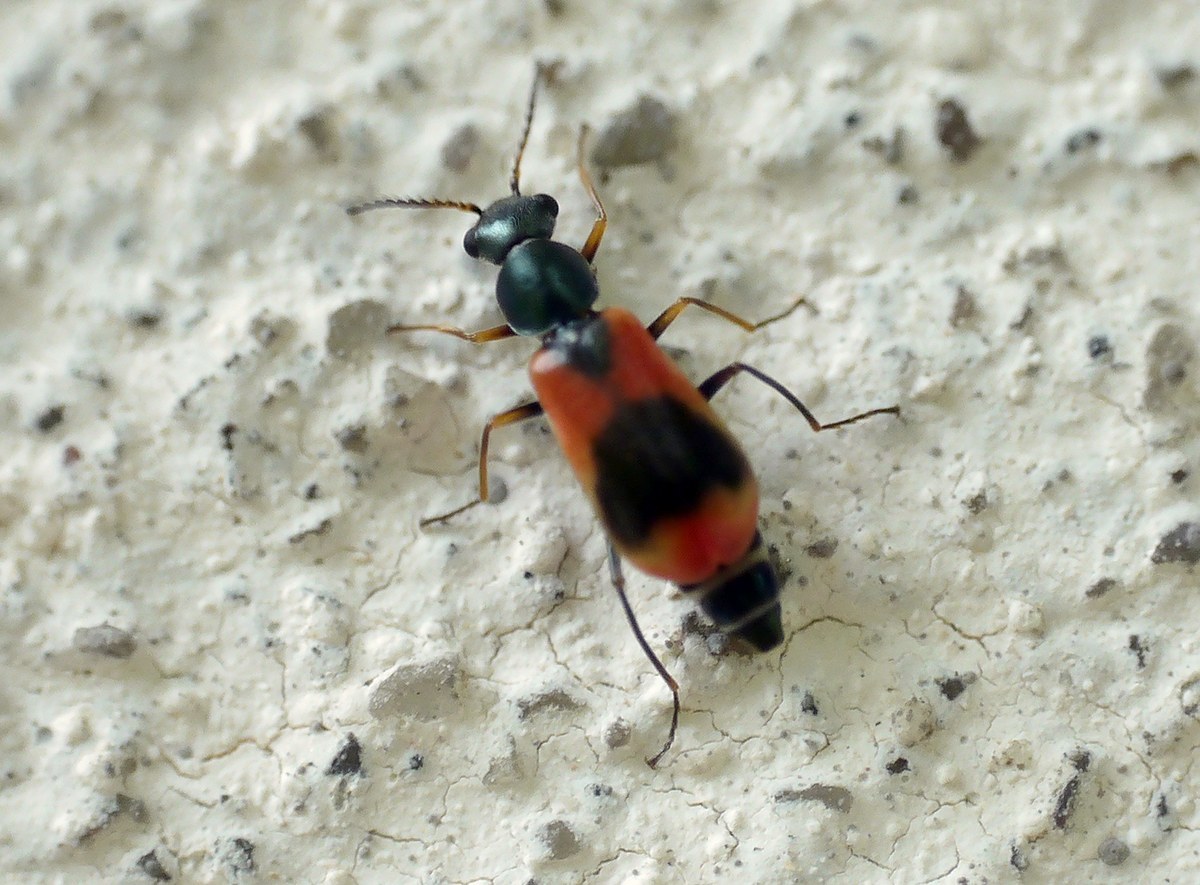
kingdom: Animalia
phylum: Arthropoda
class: Insecta
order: Coleoptera
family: Melyridae
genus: Anthocomus
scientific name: Anthocomus equestris
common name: Black-banded soft-winged flower beetle
